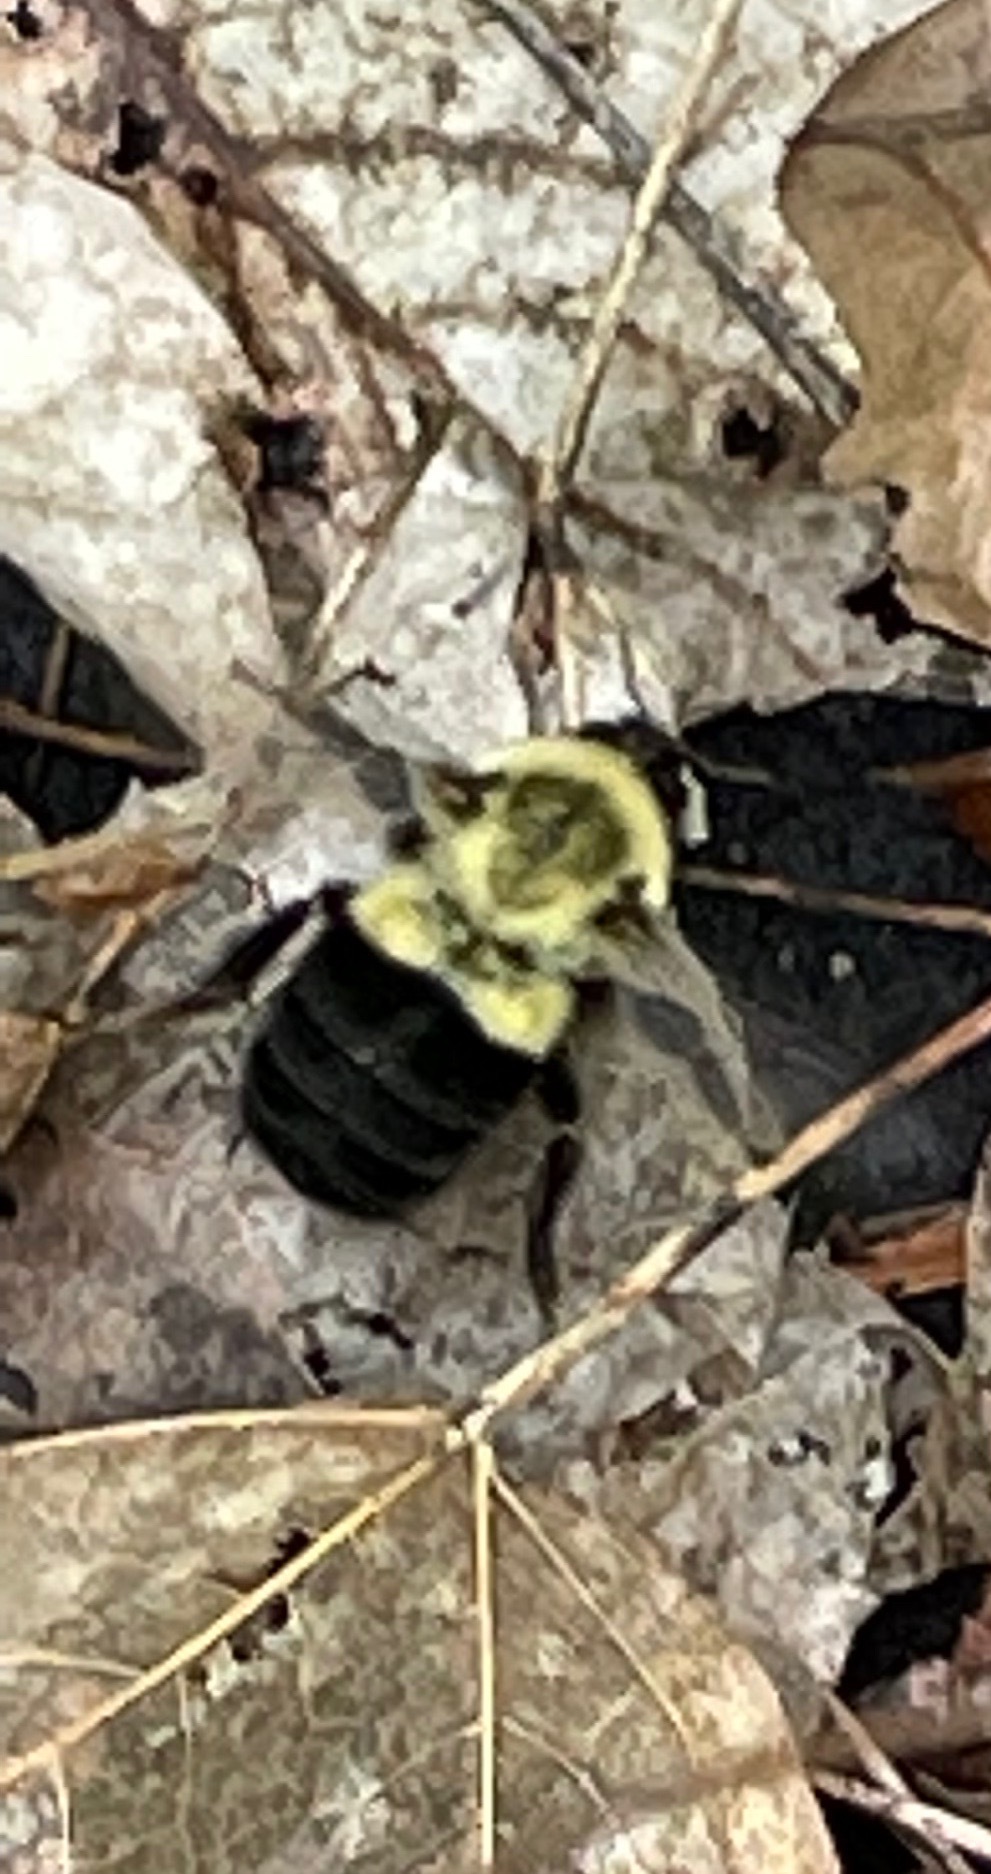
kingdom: Animalia
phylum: Arthropoda
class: Insecta
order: Hymenoptera
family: Apidae
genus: Bombus
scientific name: Bombus impatiens
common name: Common eastern bumble bee
